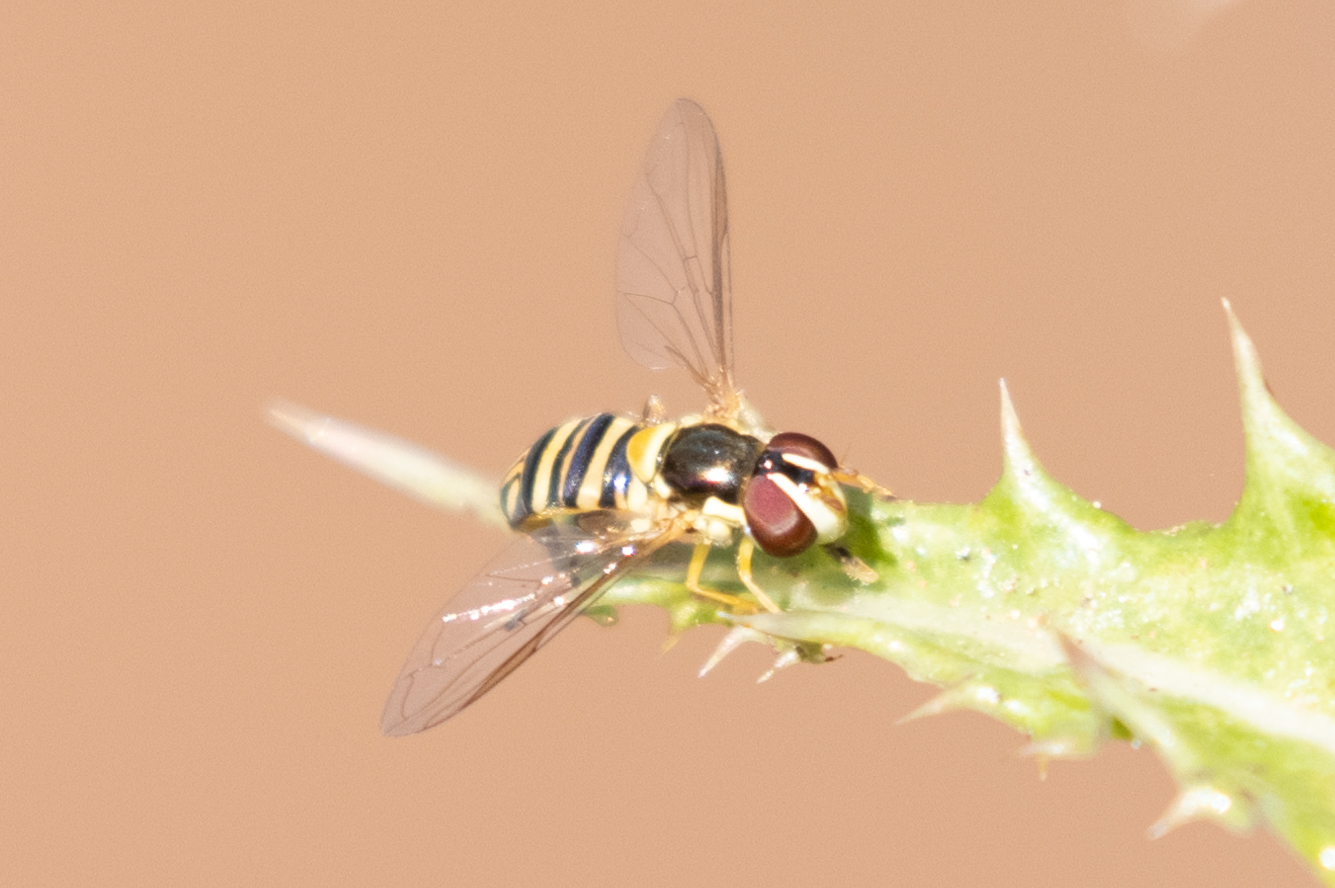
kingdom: Animalia
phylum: Arthropoda
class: Insecta
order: Diptera
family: Syrphidae
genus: Allograpta
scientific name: Allograpta obliqua
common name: Common oblique syrphid
